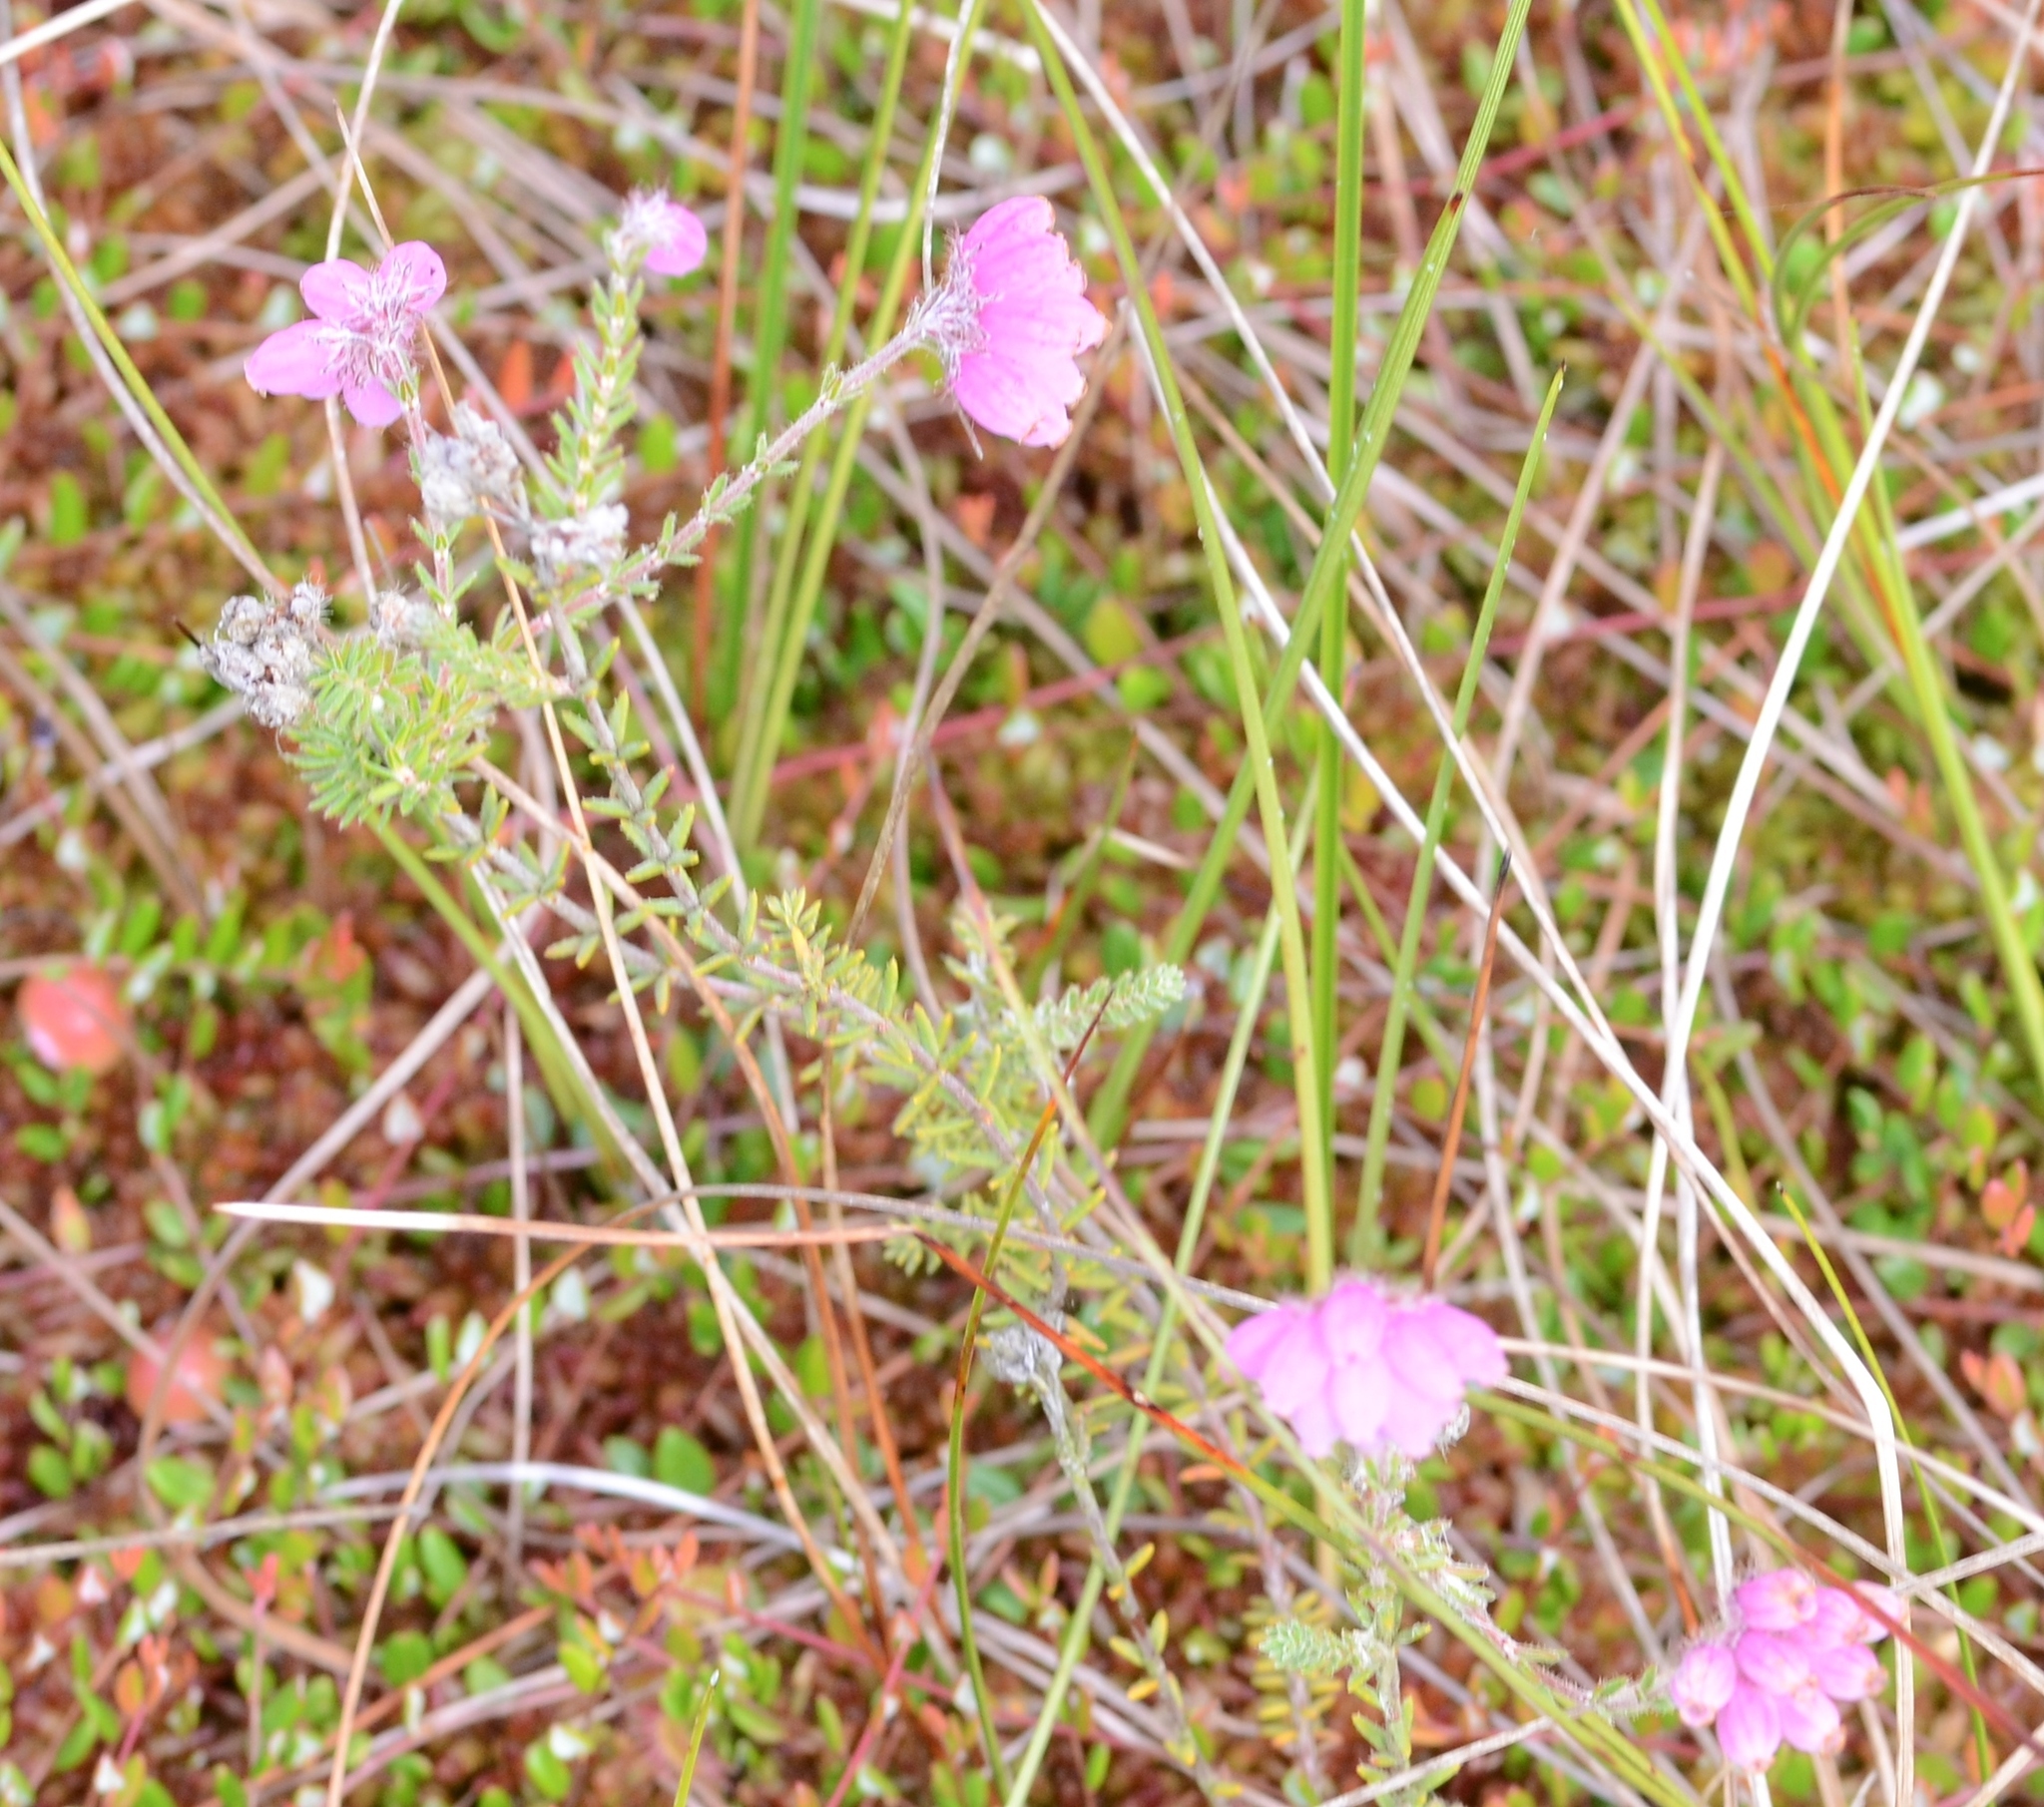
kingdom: Plantae
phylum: Tracheophyta
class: Magnoliopsida
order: Ericales
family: Ericaceae
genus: Erica
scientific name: Erica tetralix
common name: Cross-leaved heath
